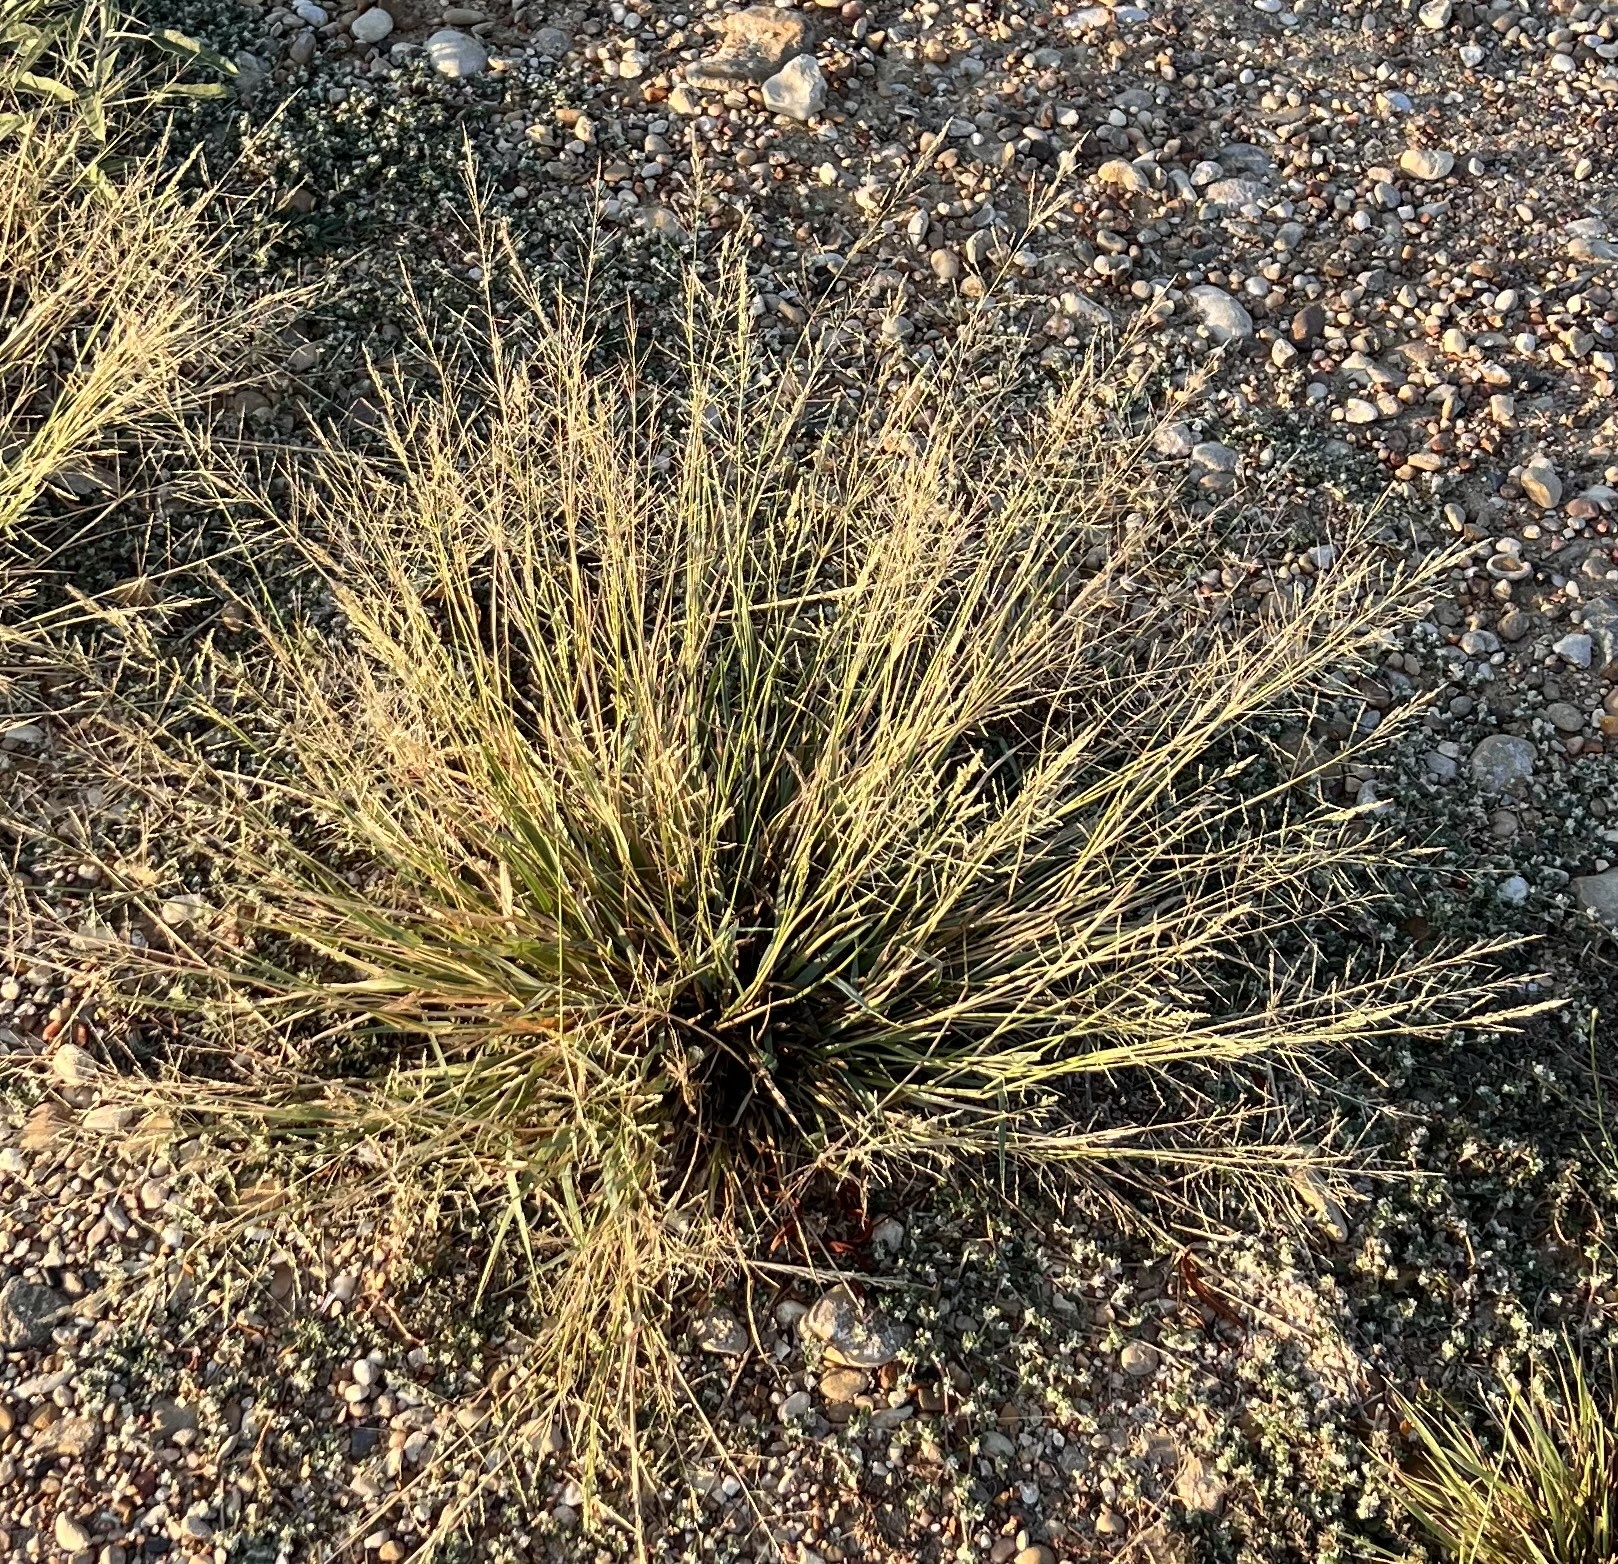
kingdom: Plantae
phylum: Tracheophyta
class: Liliopsida
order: Poales
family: Poaceae
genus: Sporobolus
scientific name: Sporobolus pyramidatus
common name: Whorled dropseed
